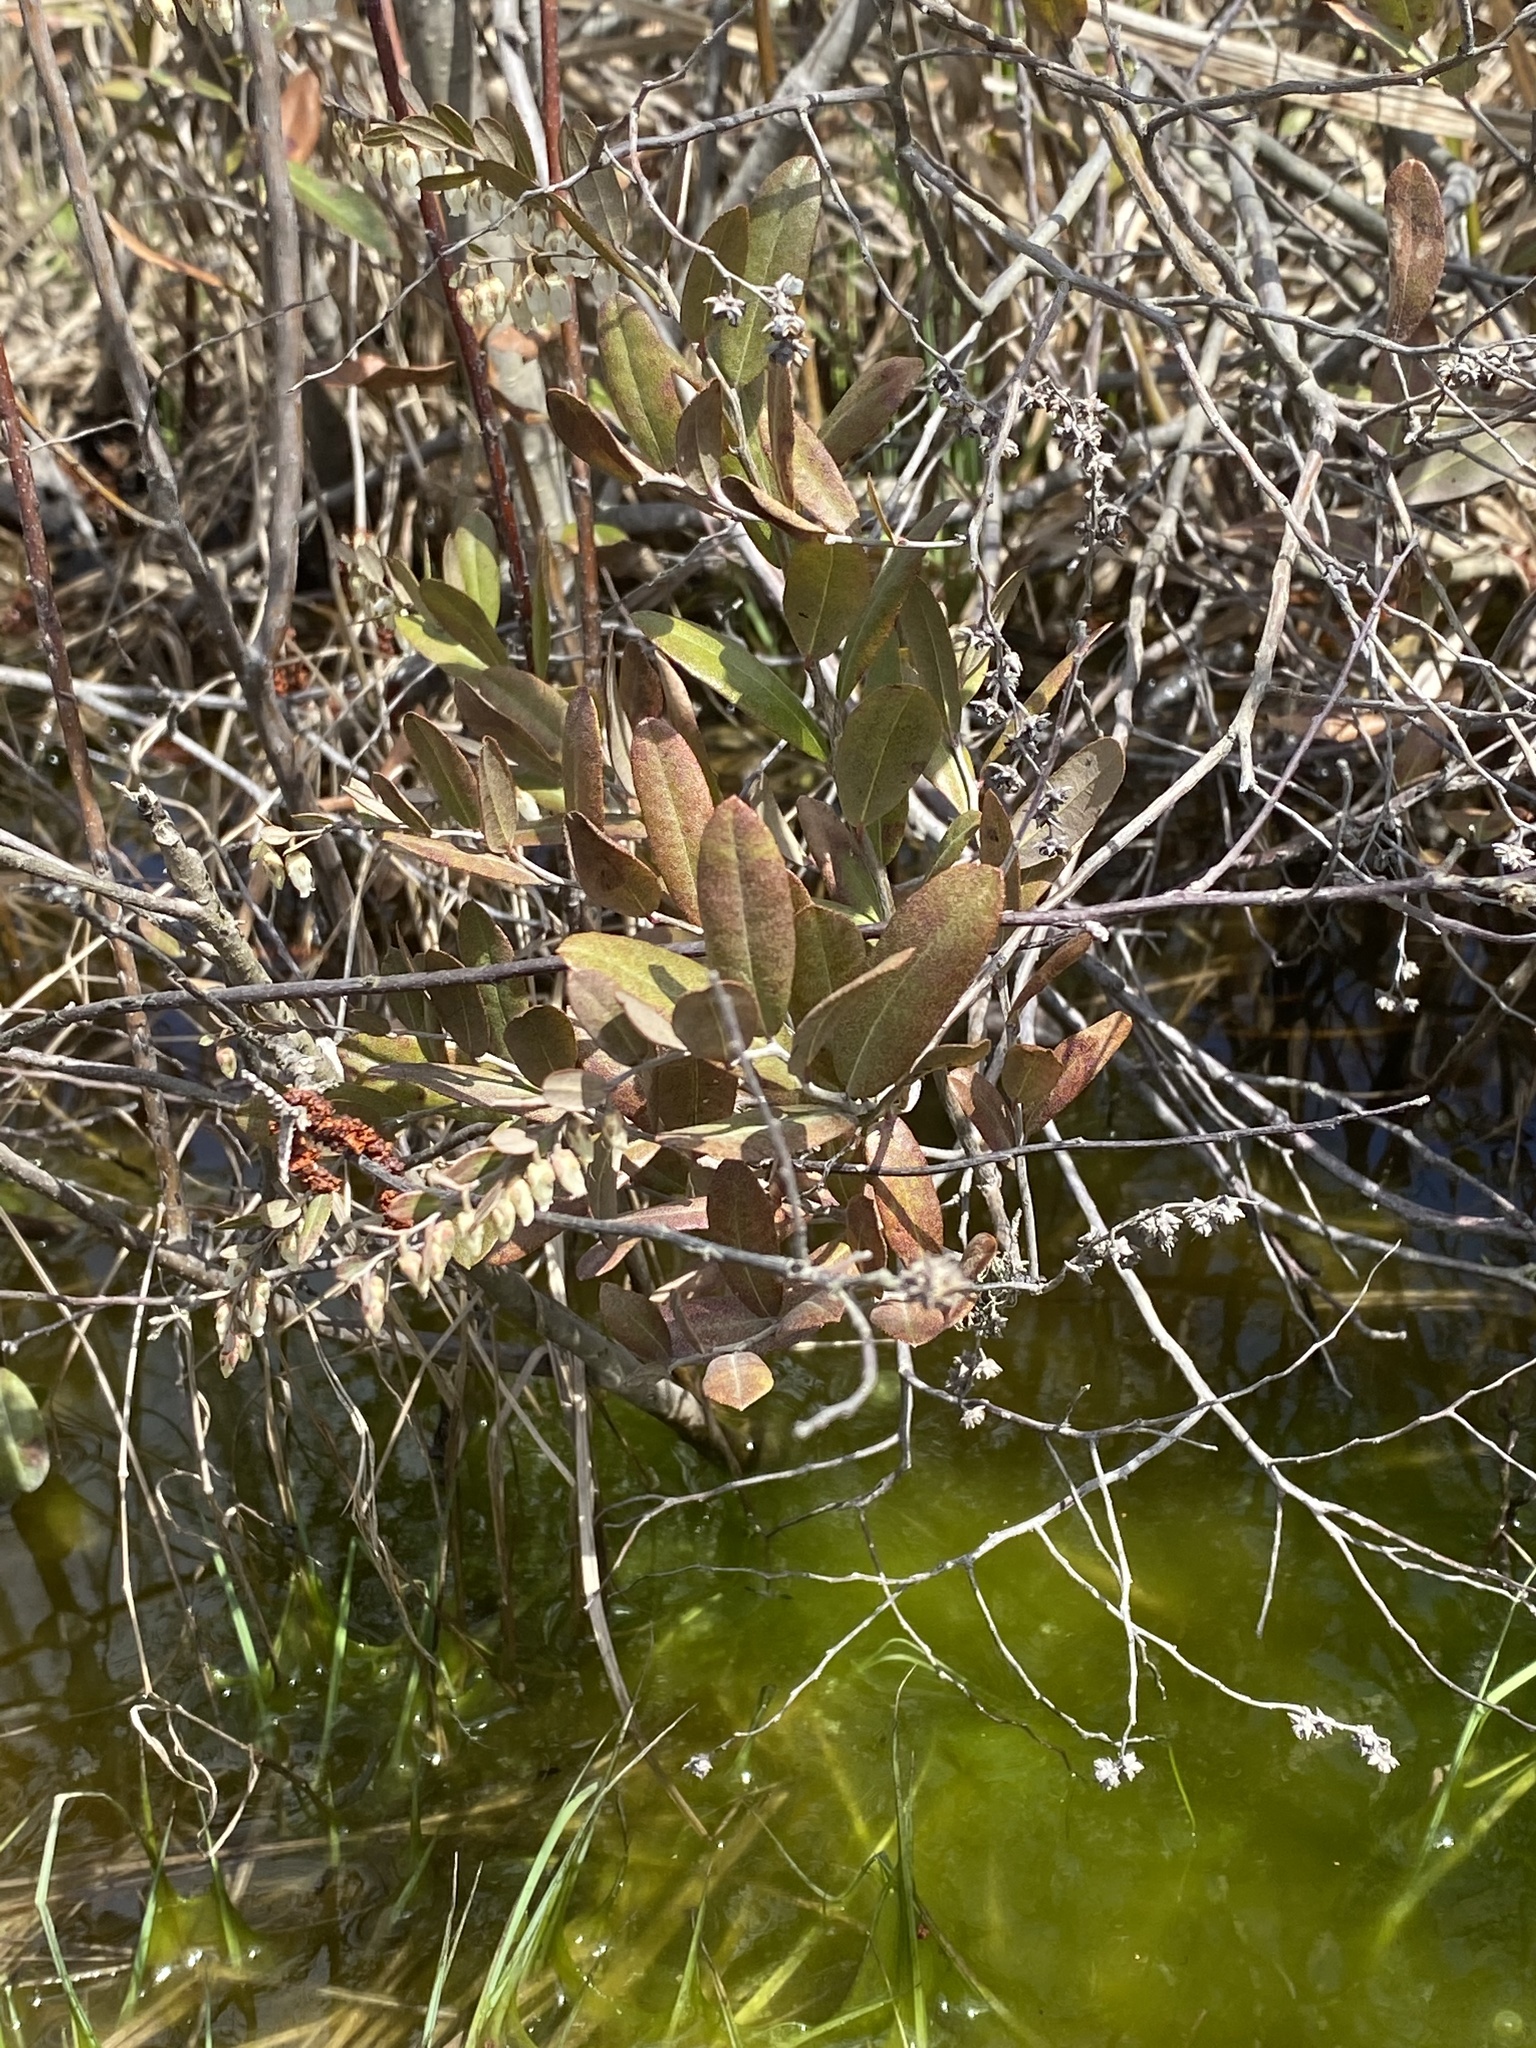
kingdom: Plantae
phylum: Tracheophyta
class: Magnoliopsida
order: Ericales
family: Ericaceae
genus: Chamaedaphne
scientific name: Chamaedaphne calyculata
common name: Leatherleaf
